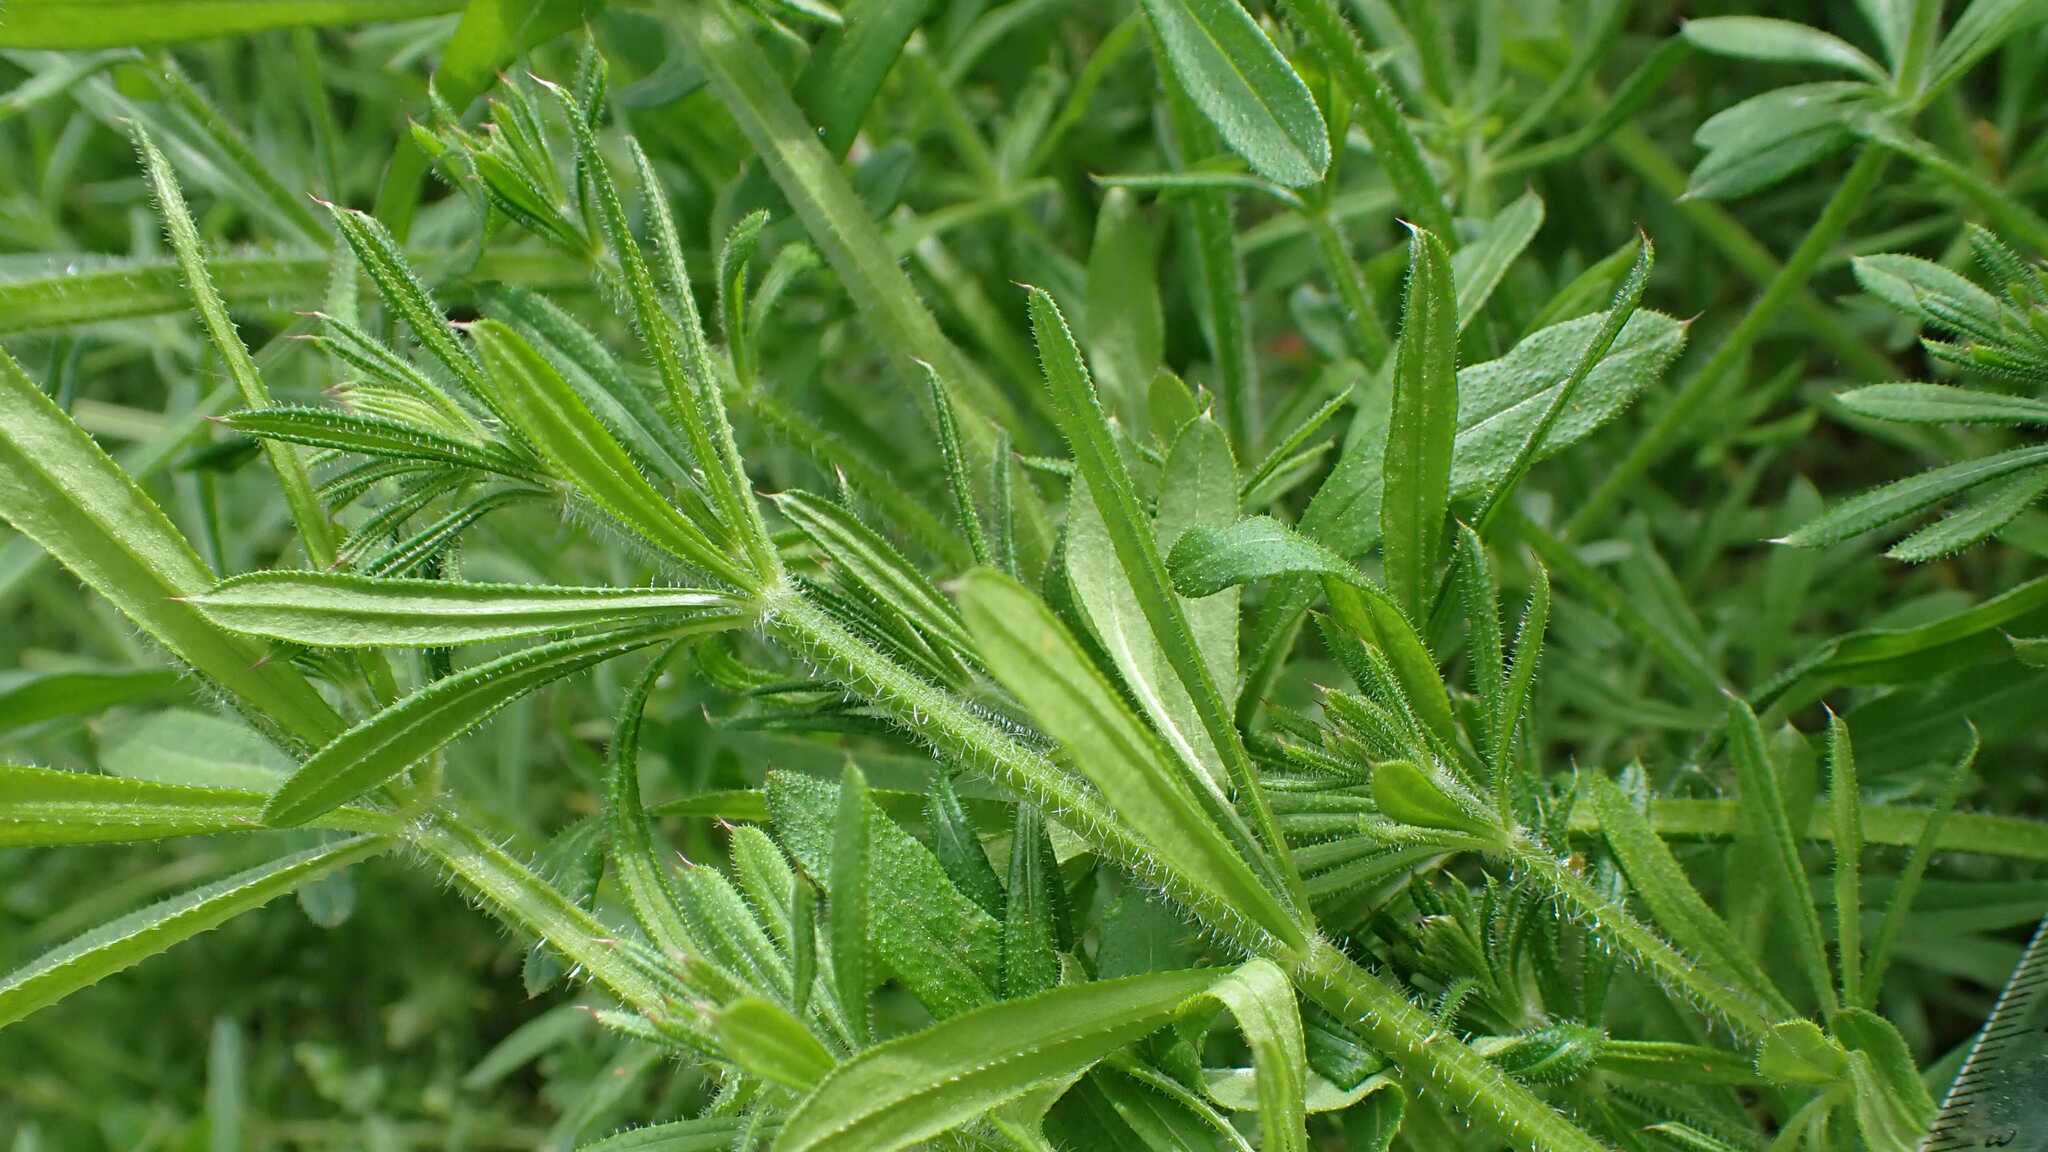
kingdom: Plantae
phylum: Tracheophyta
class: Magnoliopsida
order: Gentianales
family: Rubiaceae
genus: Galium
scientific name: Galium aparine
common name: Cleavers
